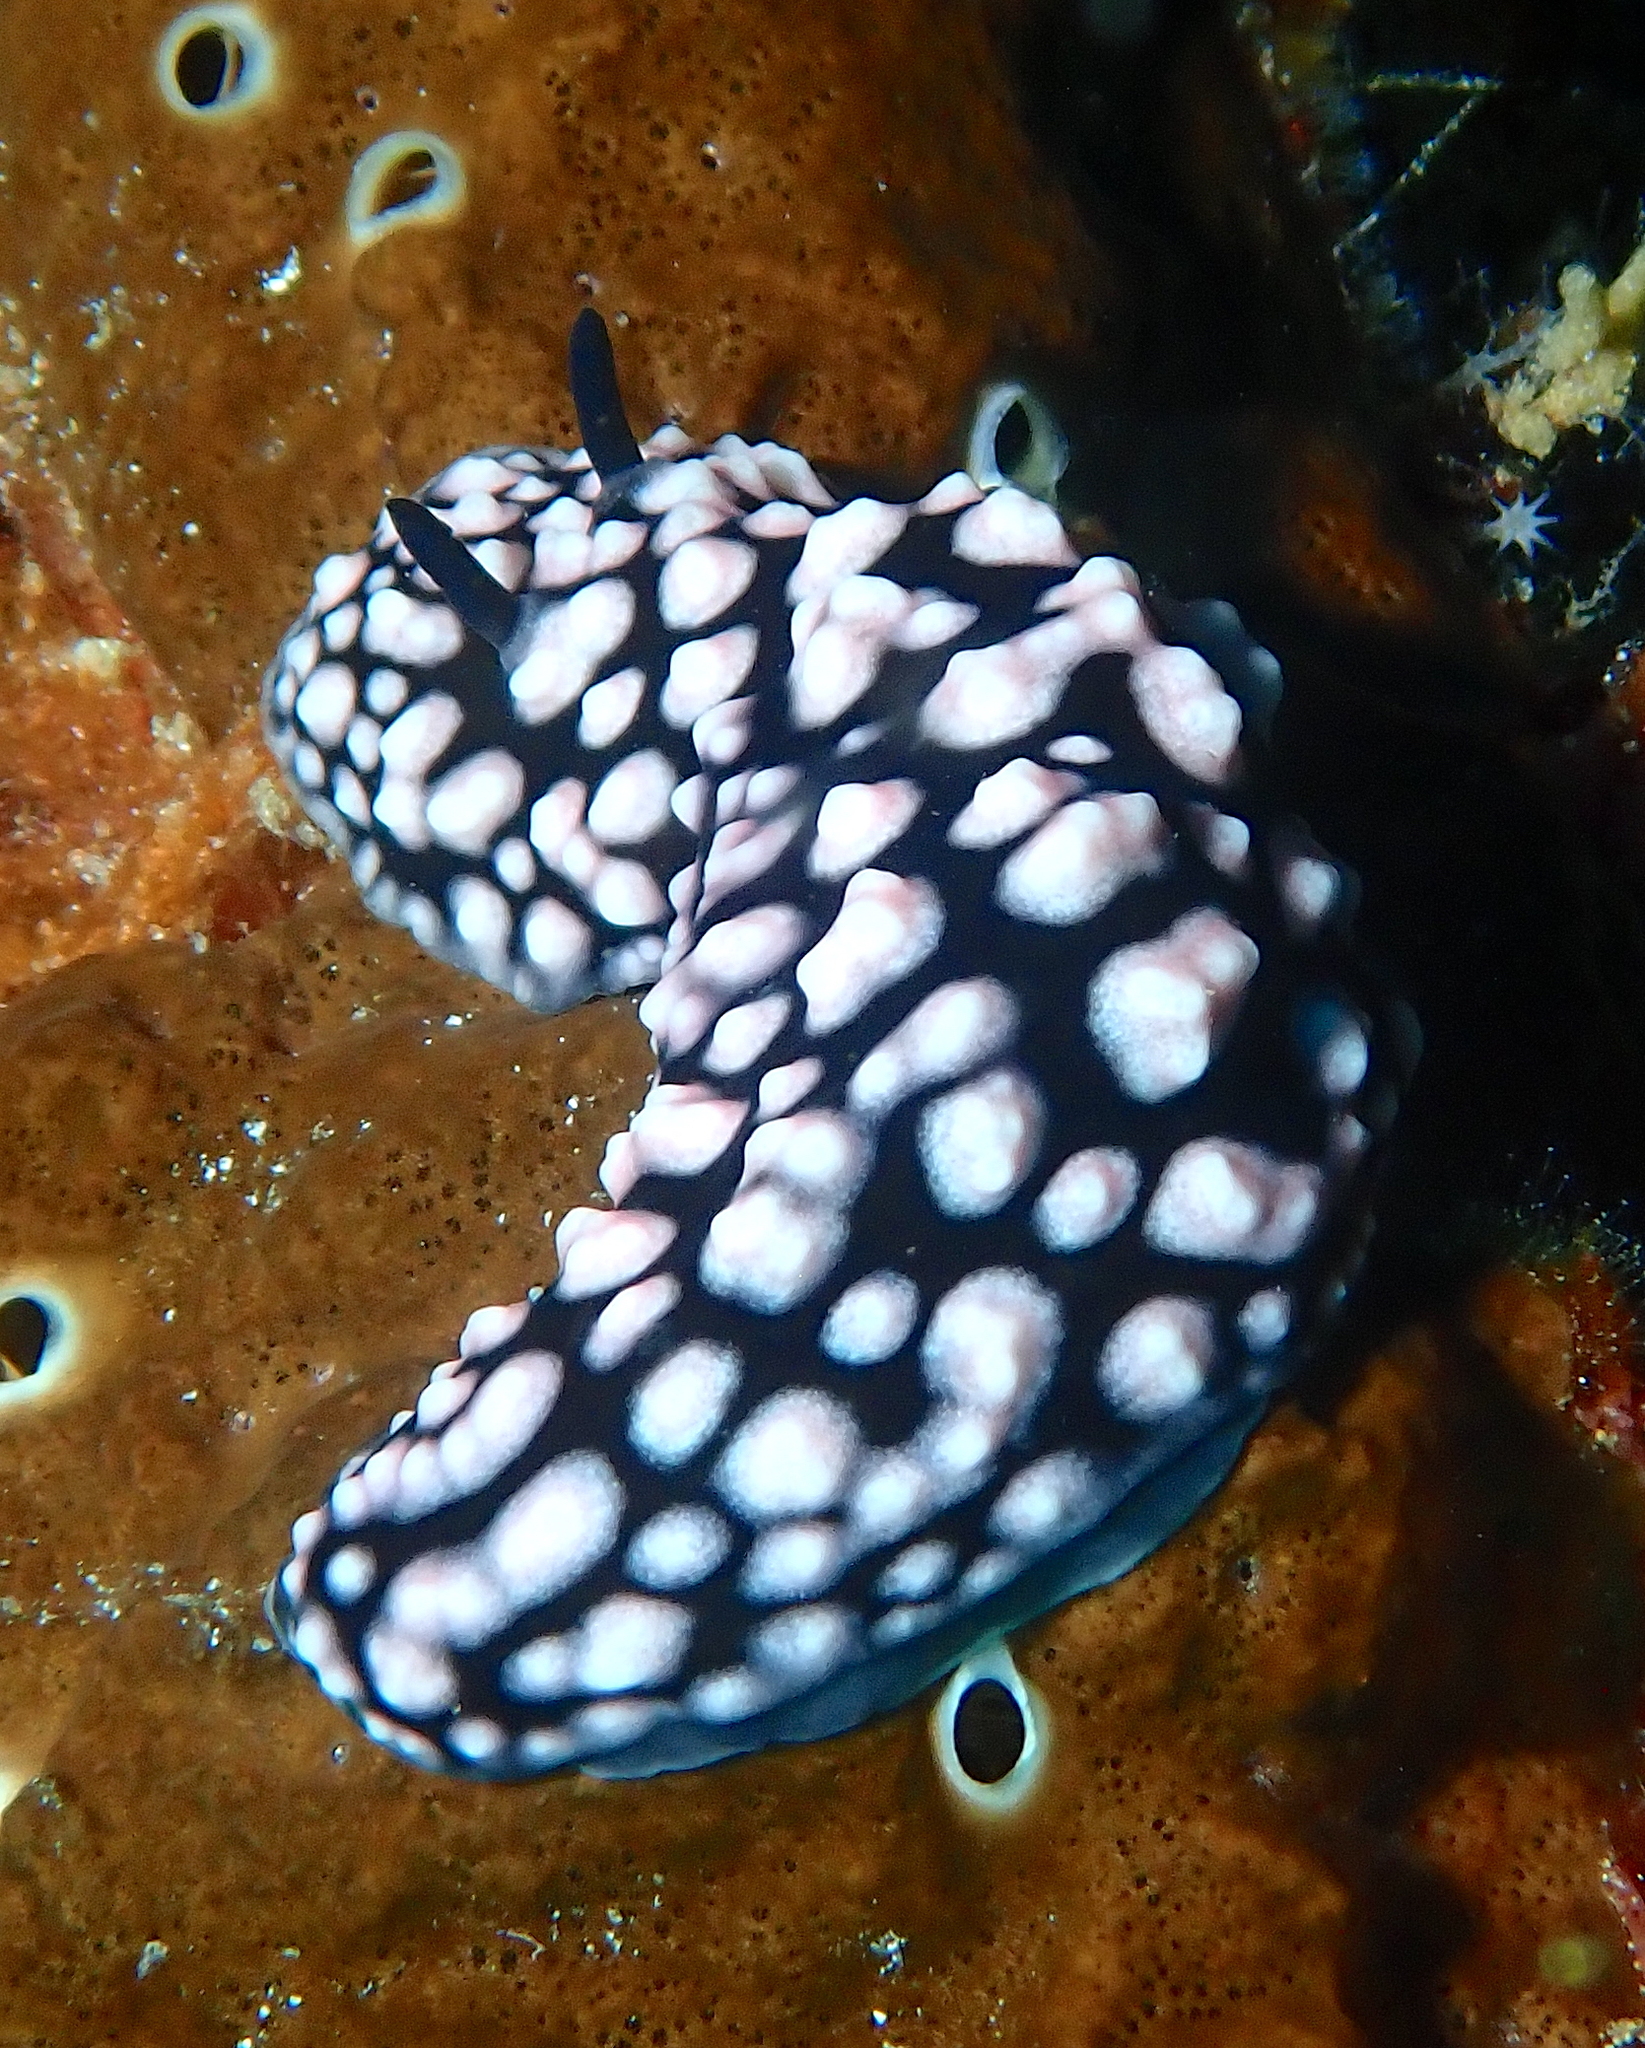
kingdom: Animalia
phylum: Mollusca
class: Gastropoda
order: Nudibranchia
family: Phyllidiidae
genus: Phyllidiella
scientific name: Phyllidiella pustulosa
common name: Pustular phyllidia
